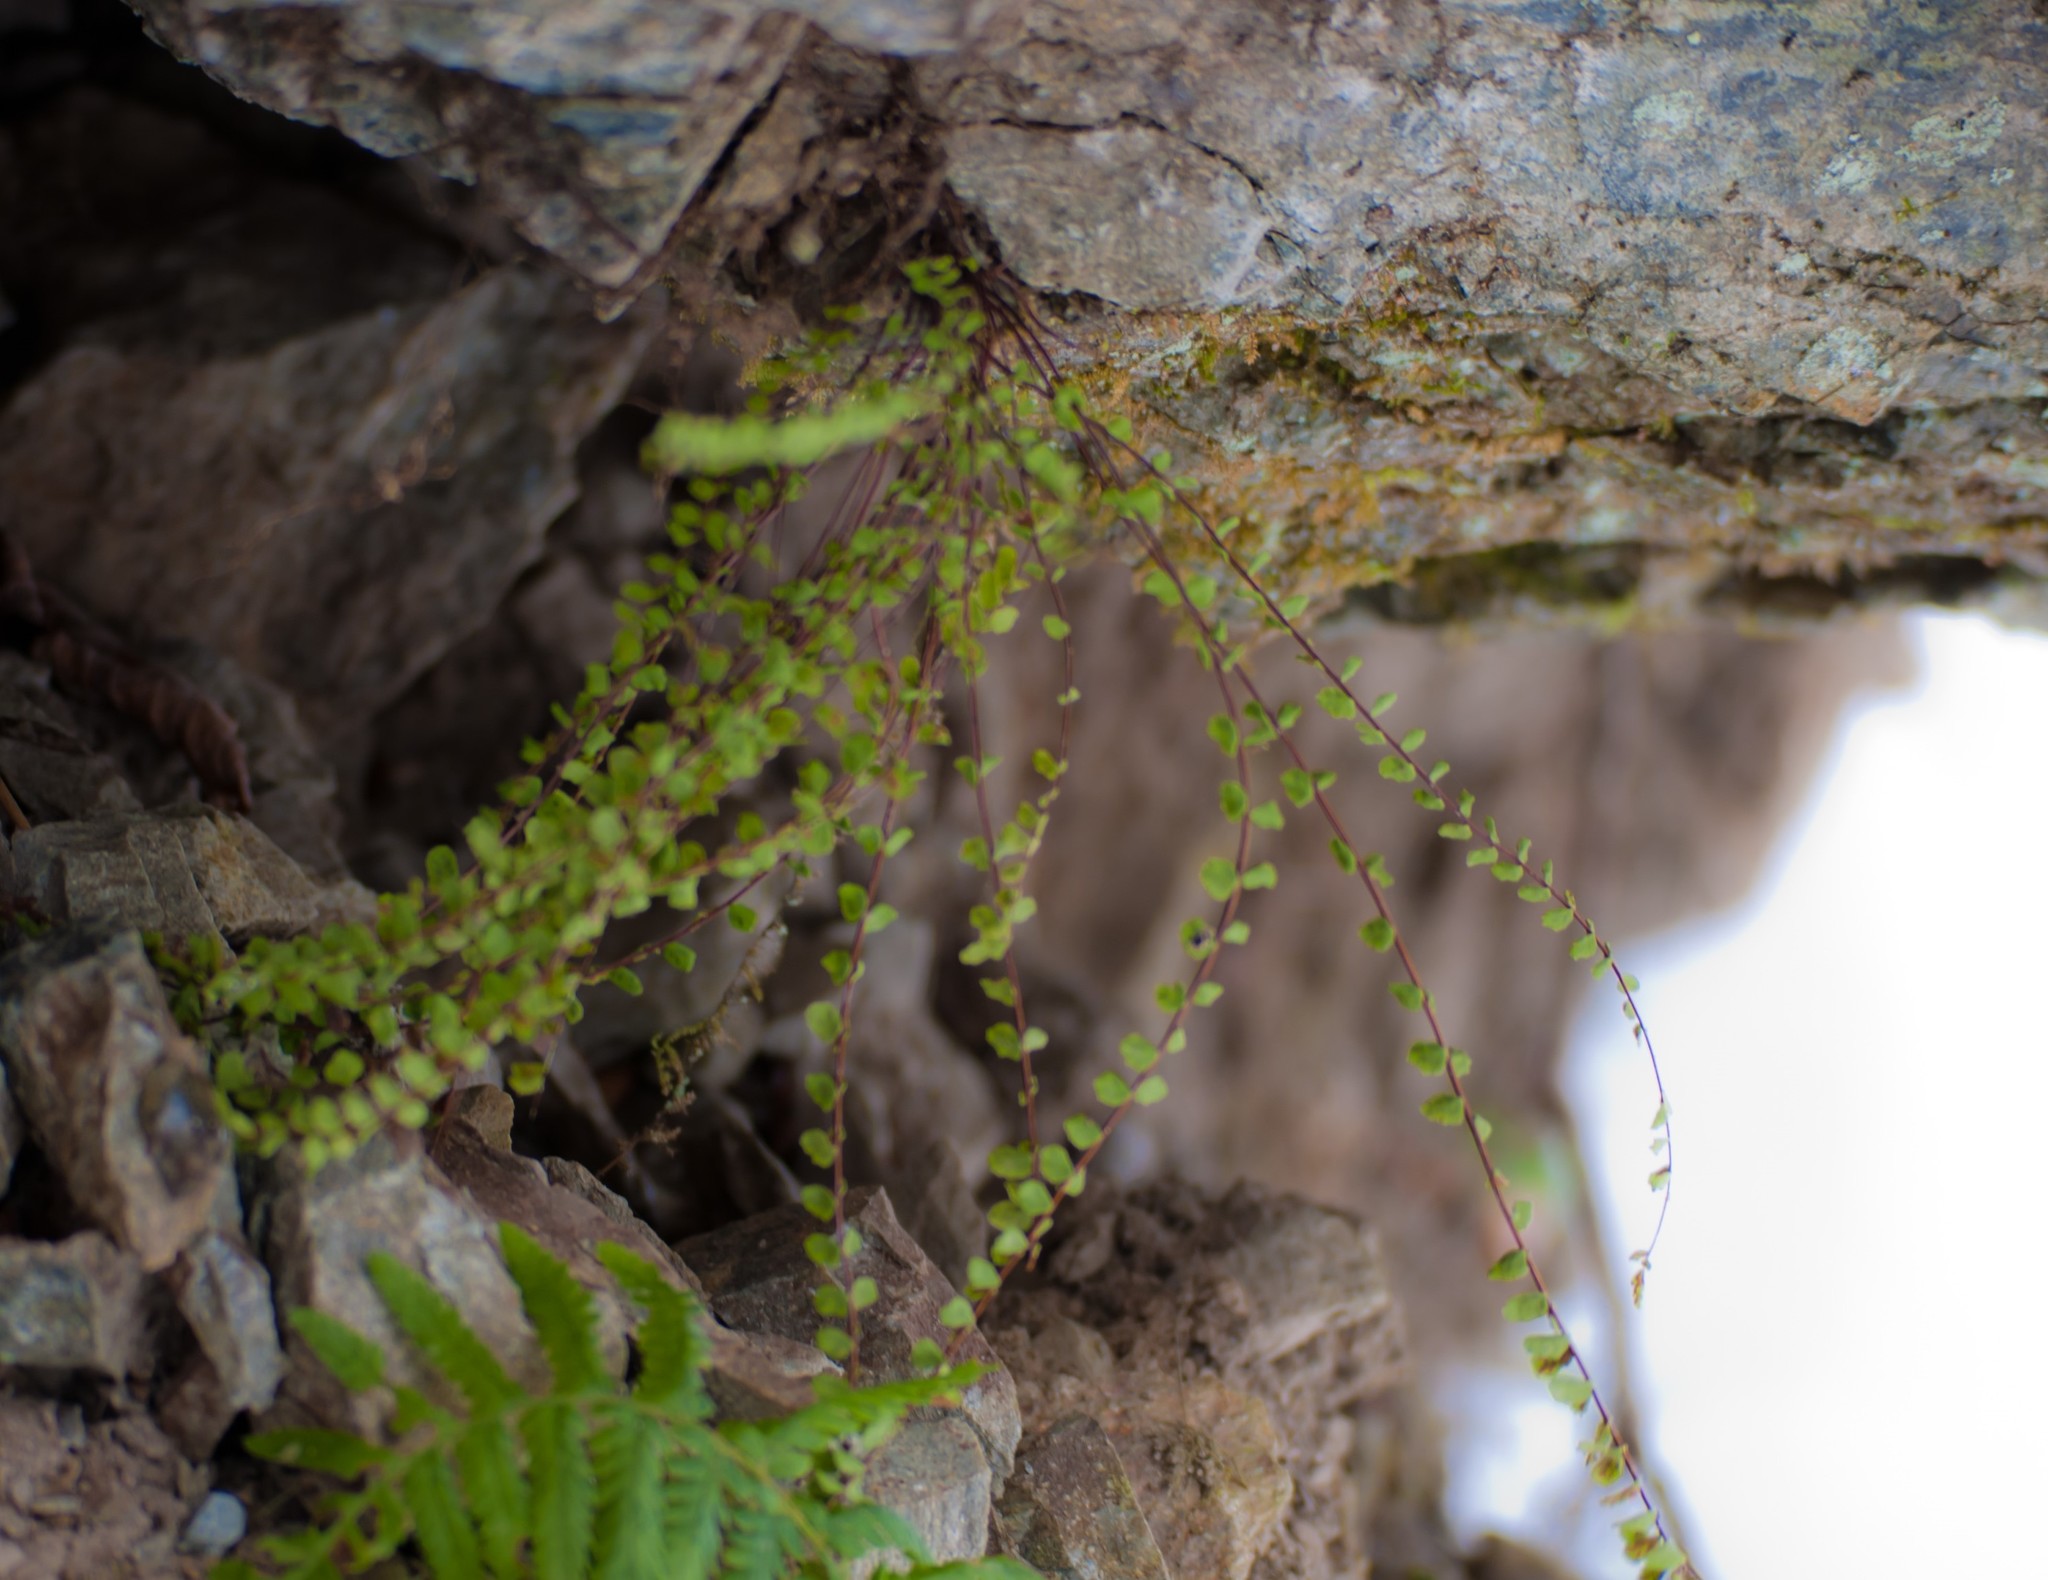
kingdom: Plantae
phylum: Tracheophyta
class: Polypodiopsida
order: Polypodiales
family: Aspleniaceae
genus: Asplenium
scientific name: Asplenium trichomanes
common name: Maidenhair spleenwort
